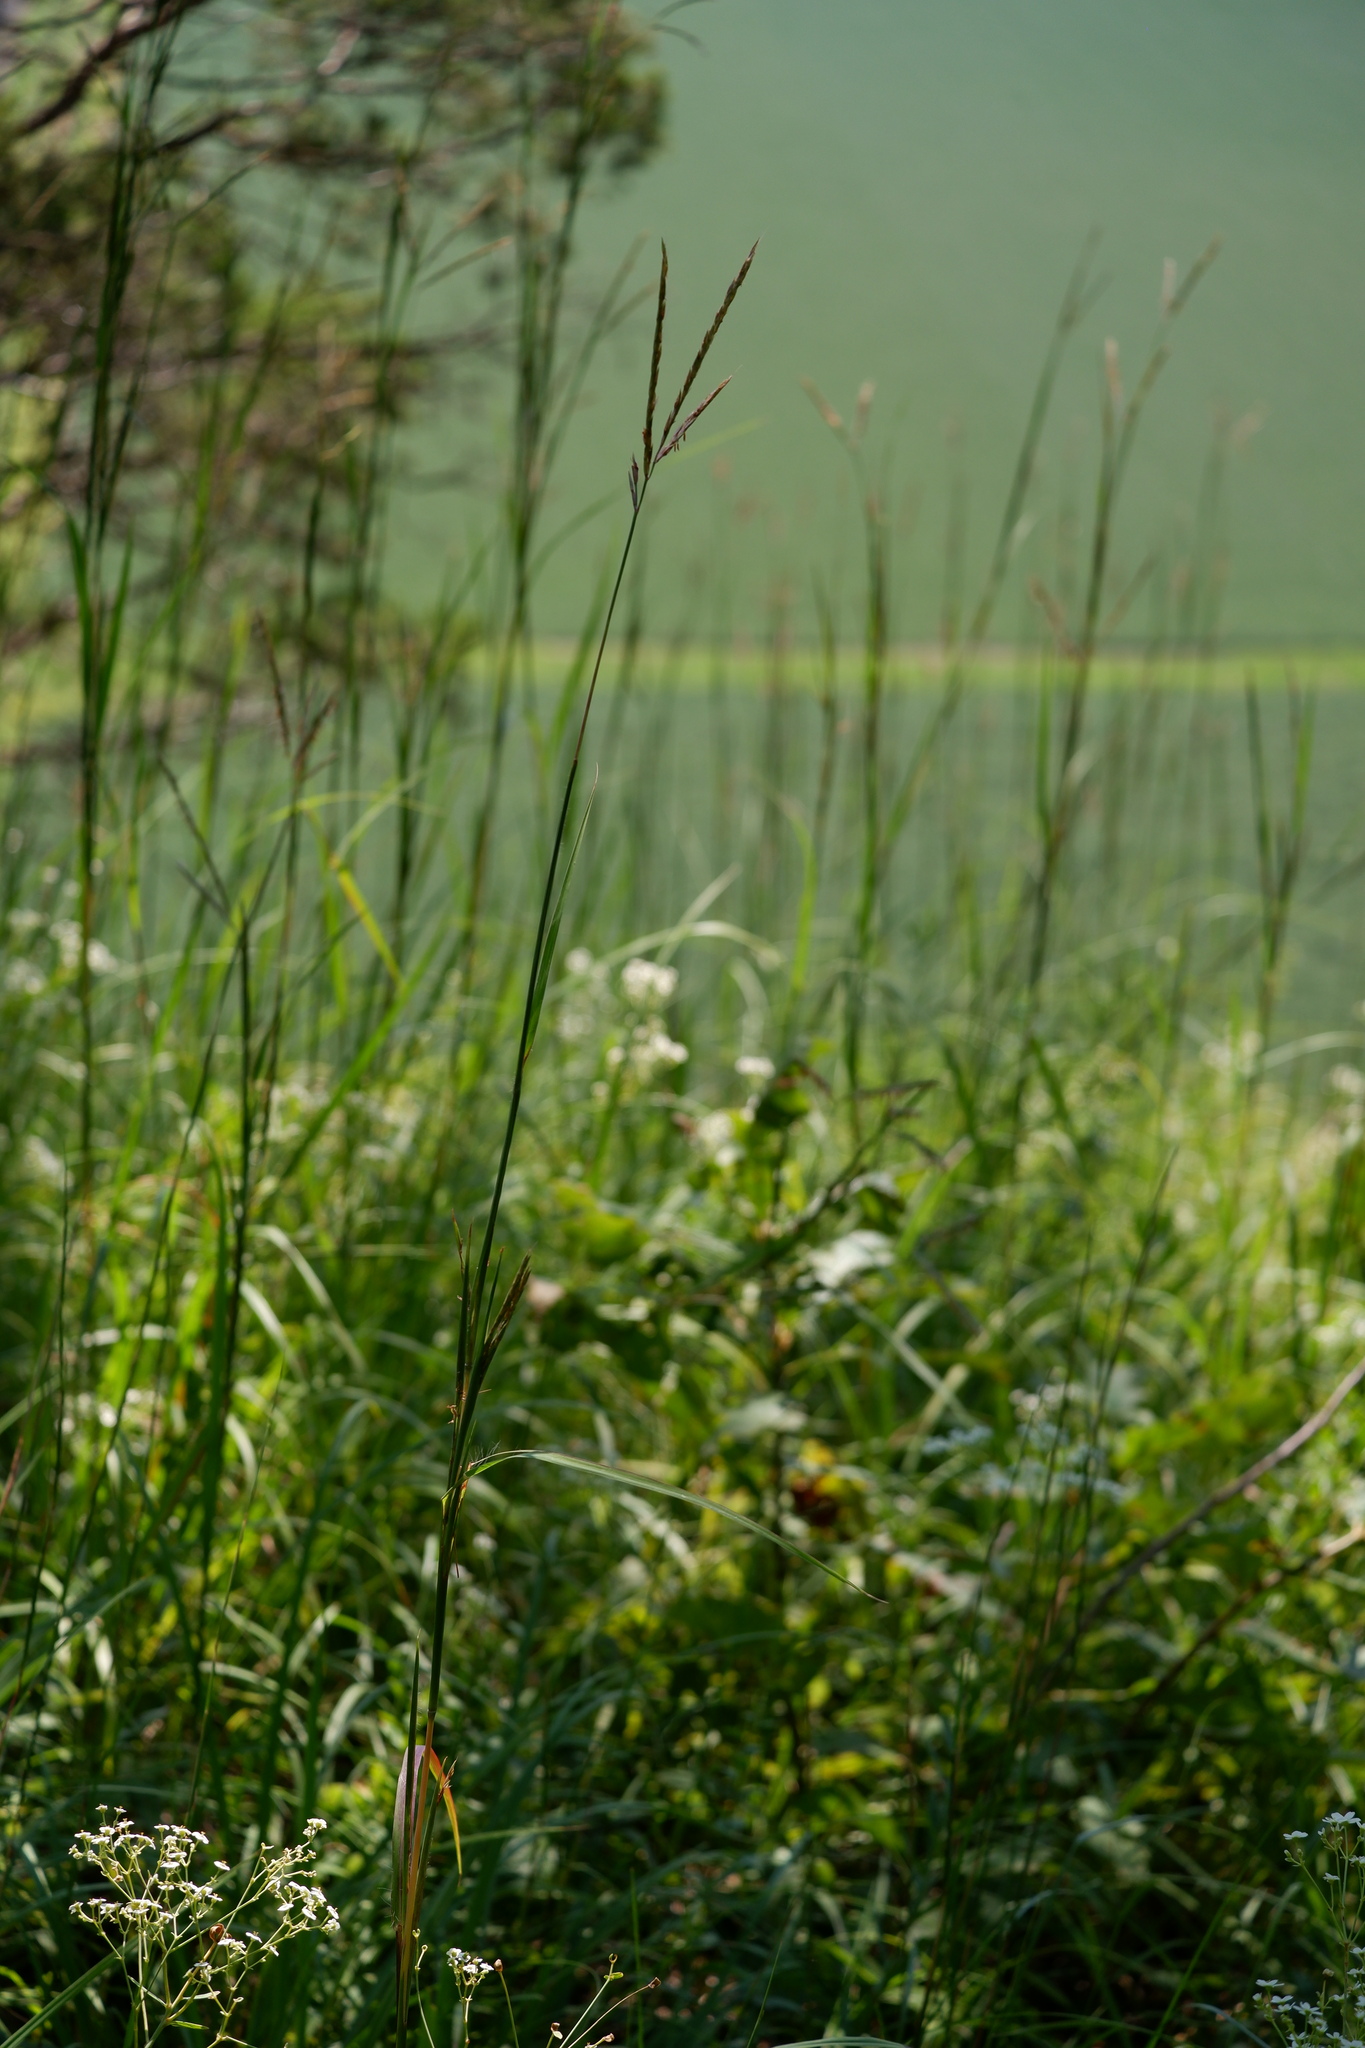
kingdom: Plantae
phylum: Tracheophyta
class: Liliopsida
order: Poales
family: Poaceae
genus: Andropogon
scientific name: Andropogon gerardi
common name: Big bluestem
